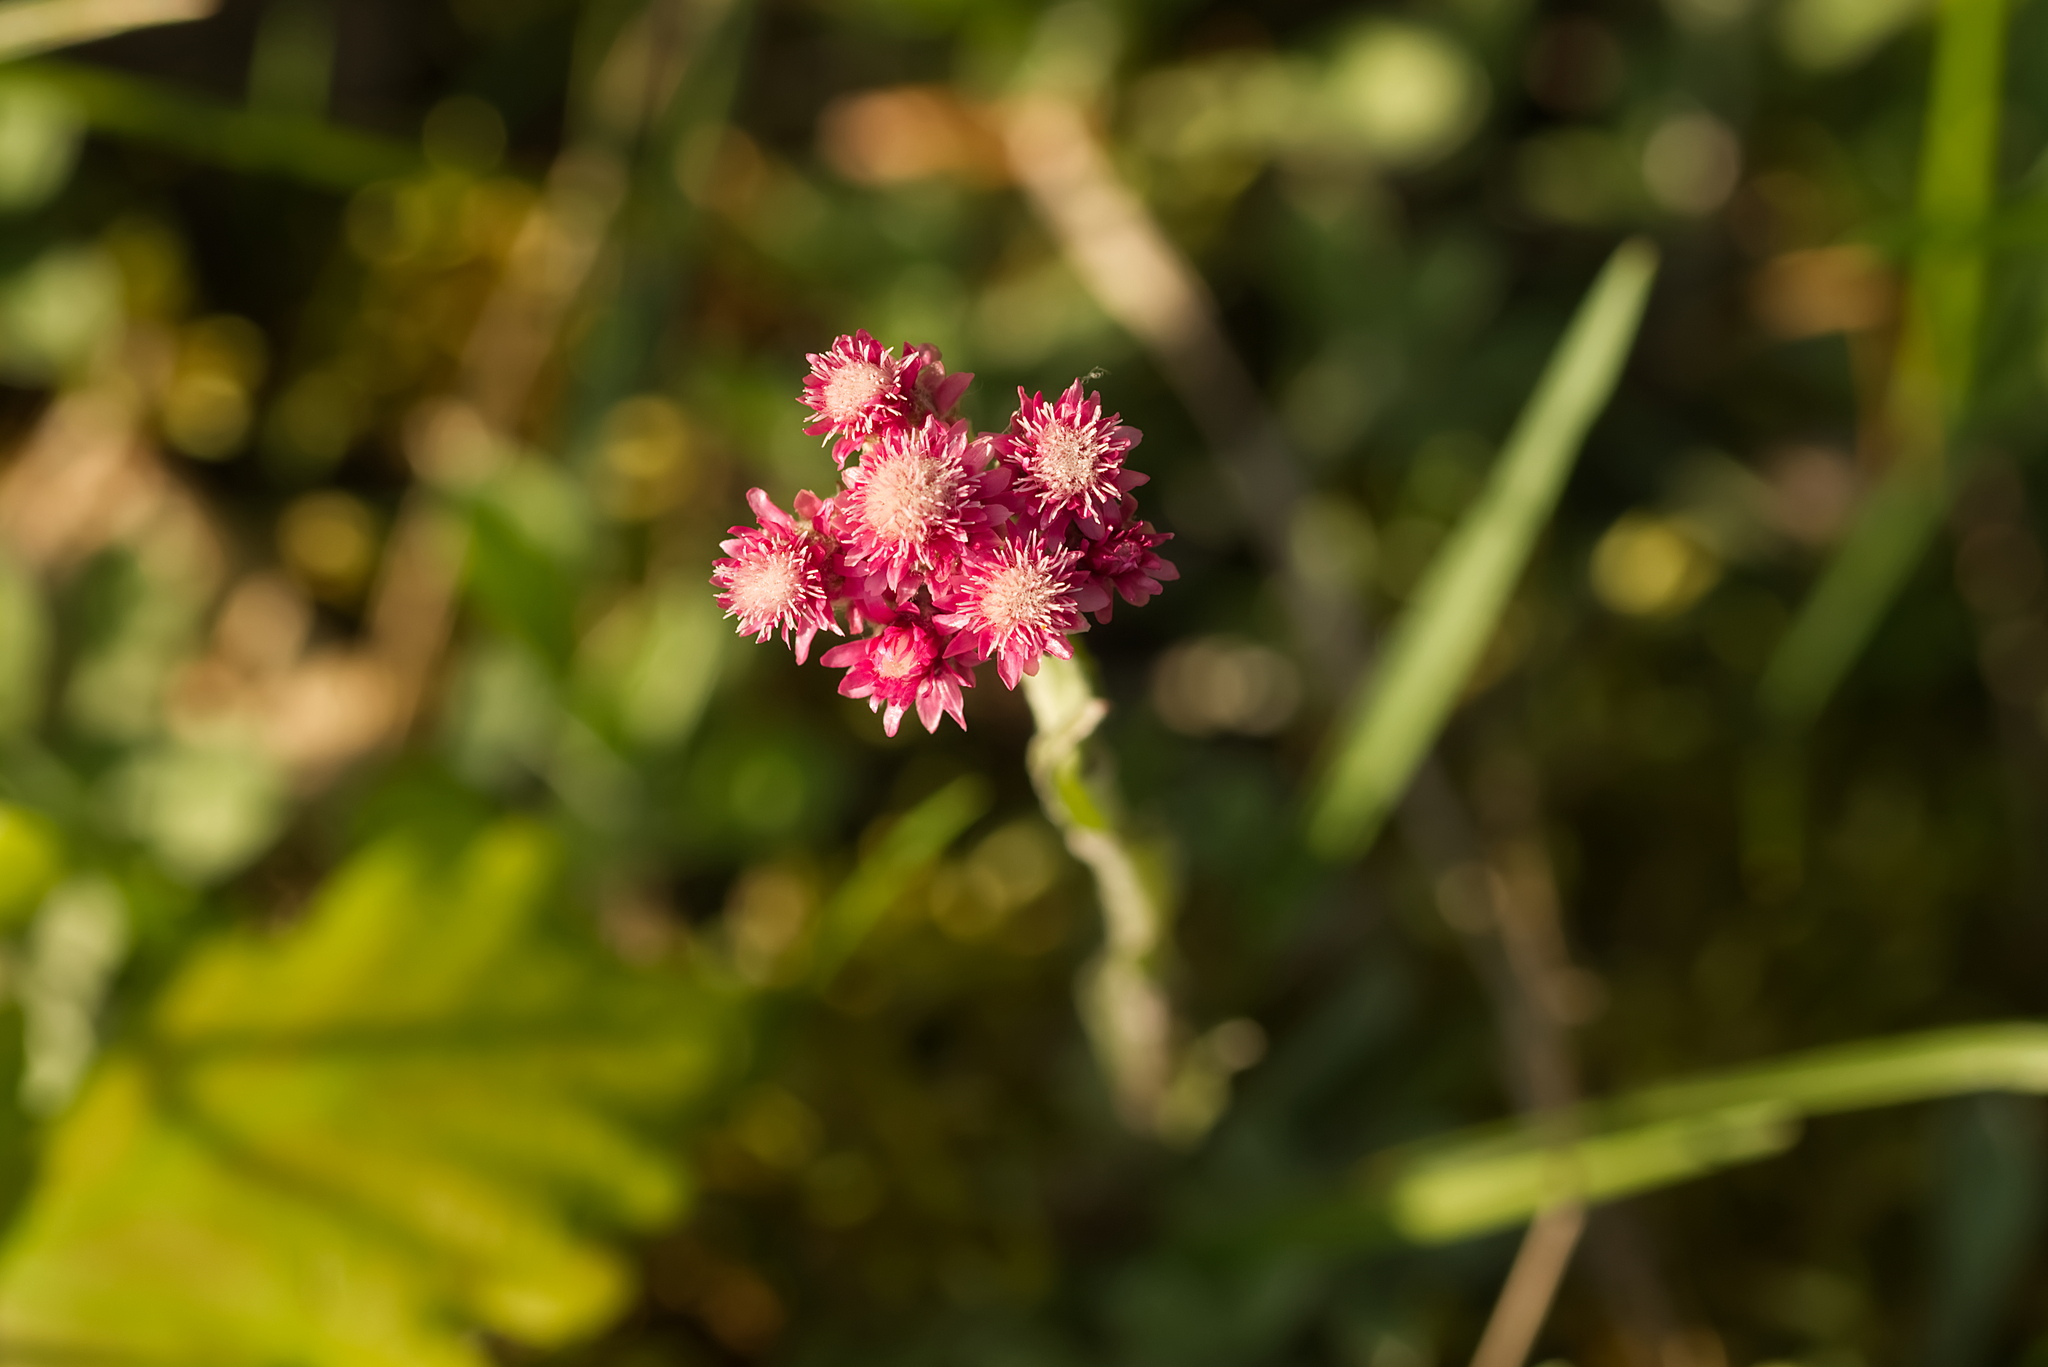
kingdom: Plantae
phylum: Tracheophyta
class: Magnoliopsida
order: Asterales
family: Asteraceae
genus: Antennaria
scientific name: Antennaria dioica
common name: Mountain everlasting
